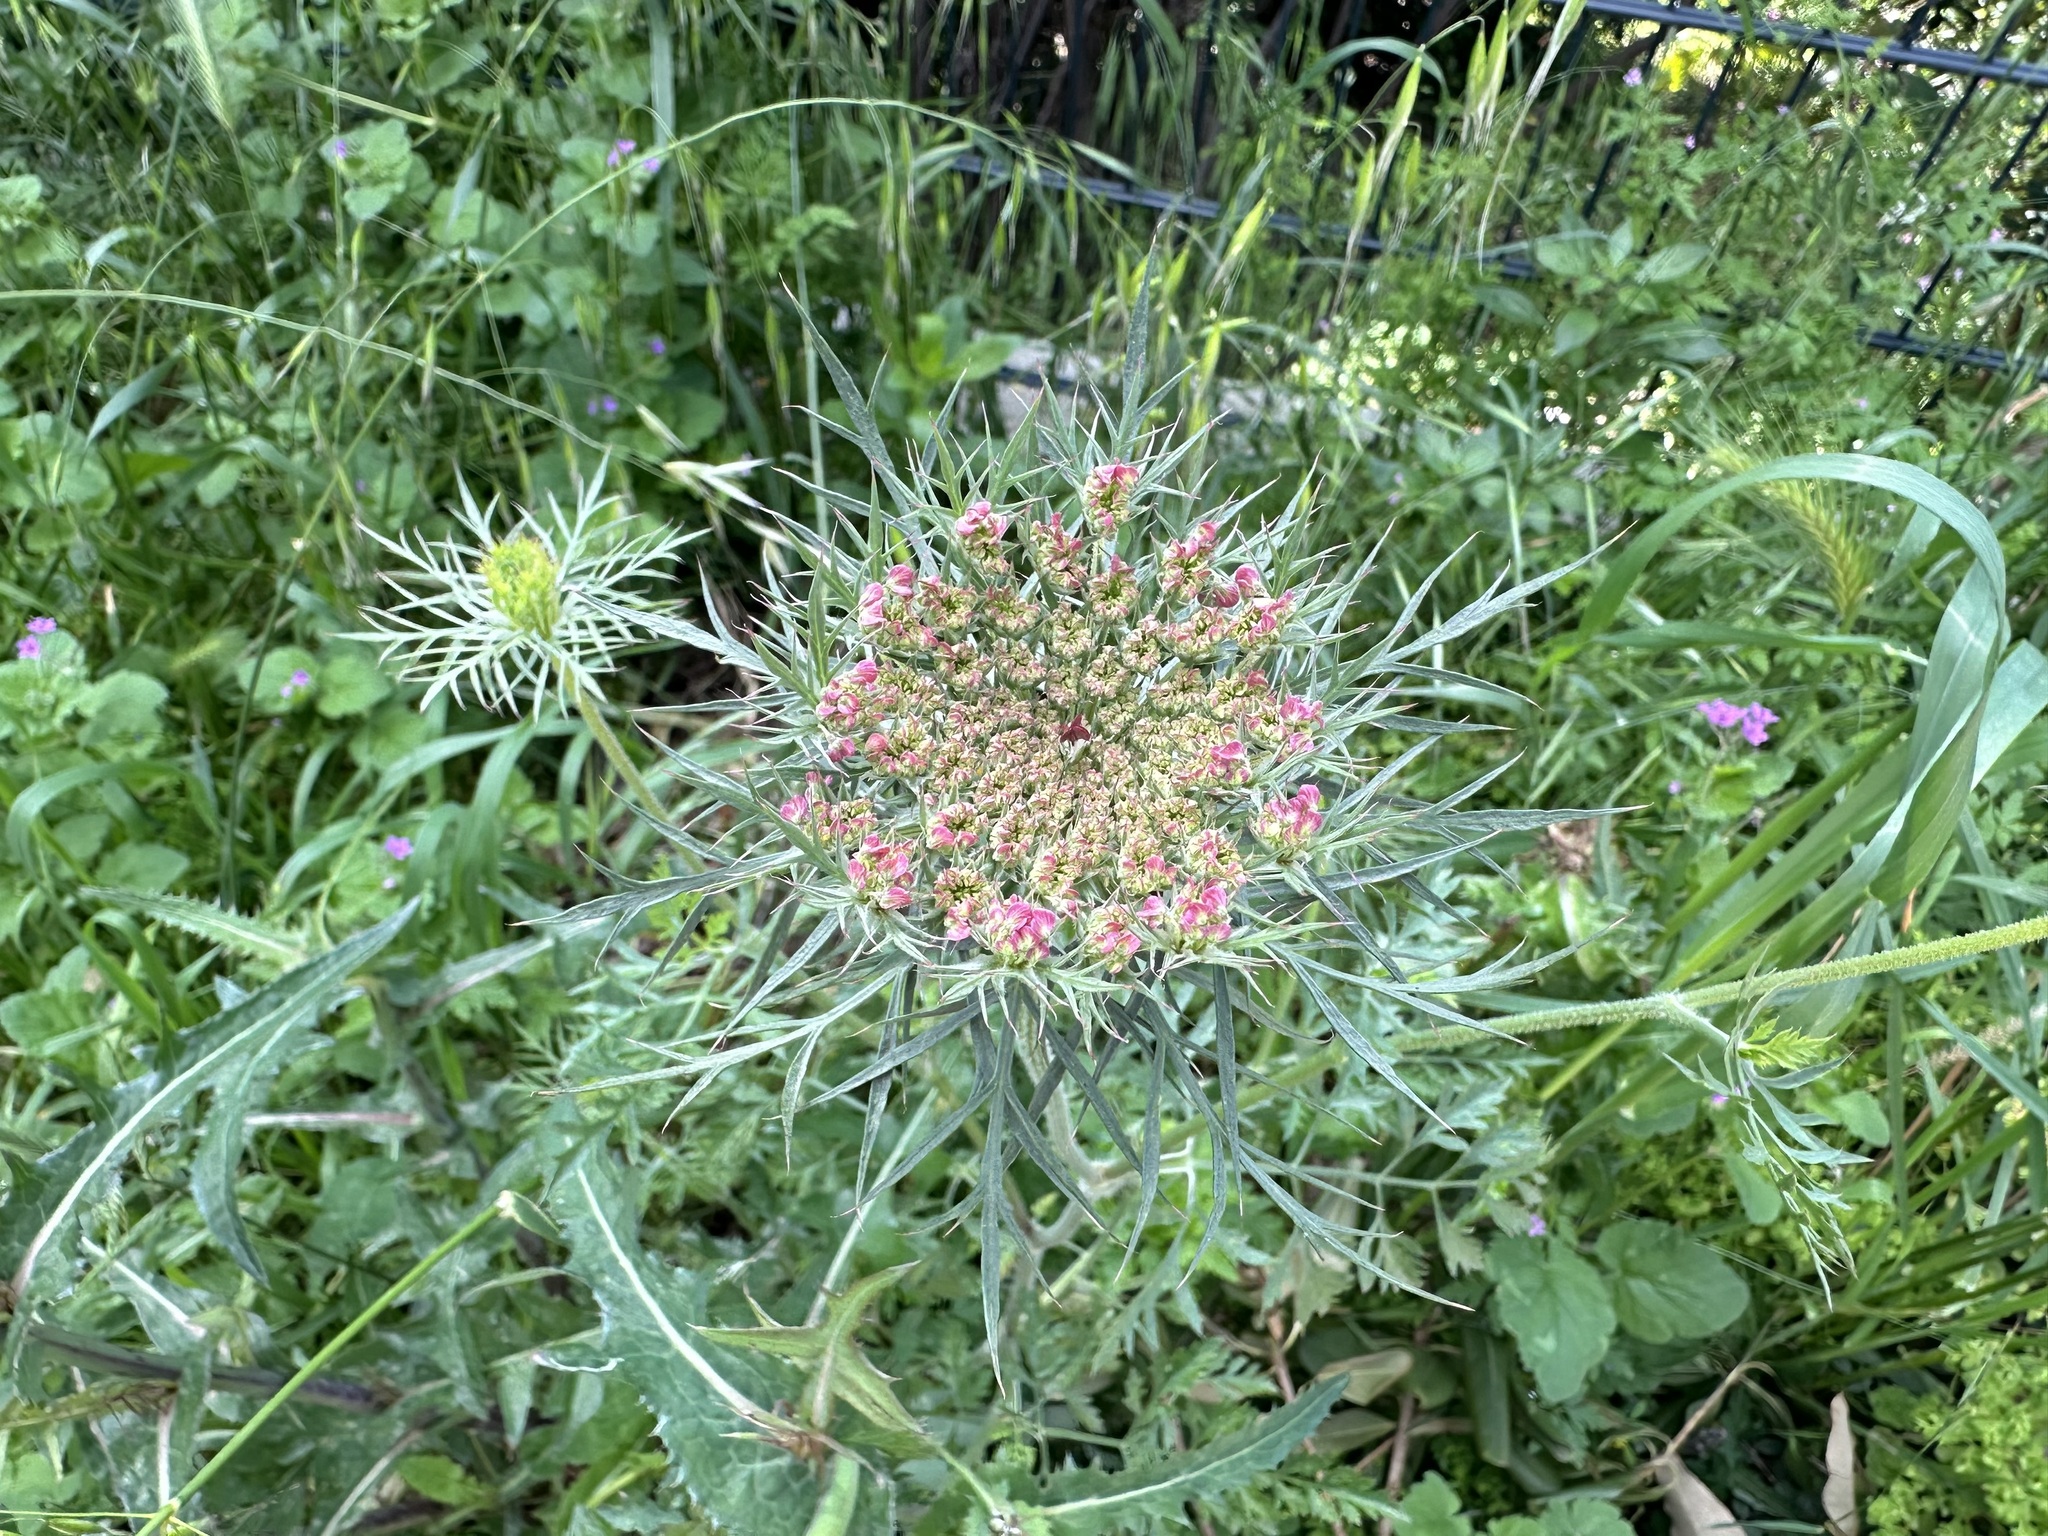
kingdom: Plantae
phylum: Tracheophyta
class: Magnoliopsida
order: Apiales
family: Apiaceae
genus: Daucus
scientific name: Daucus carota
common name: Wild carrot
